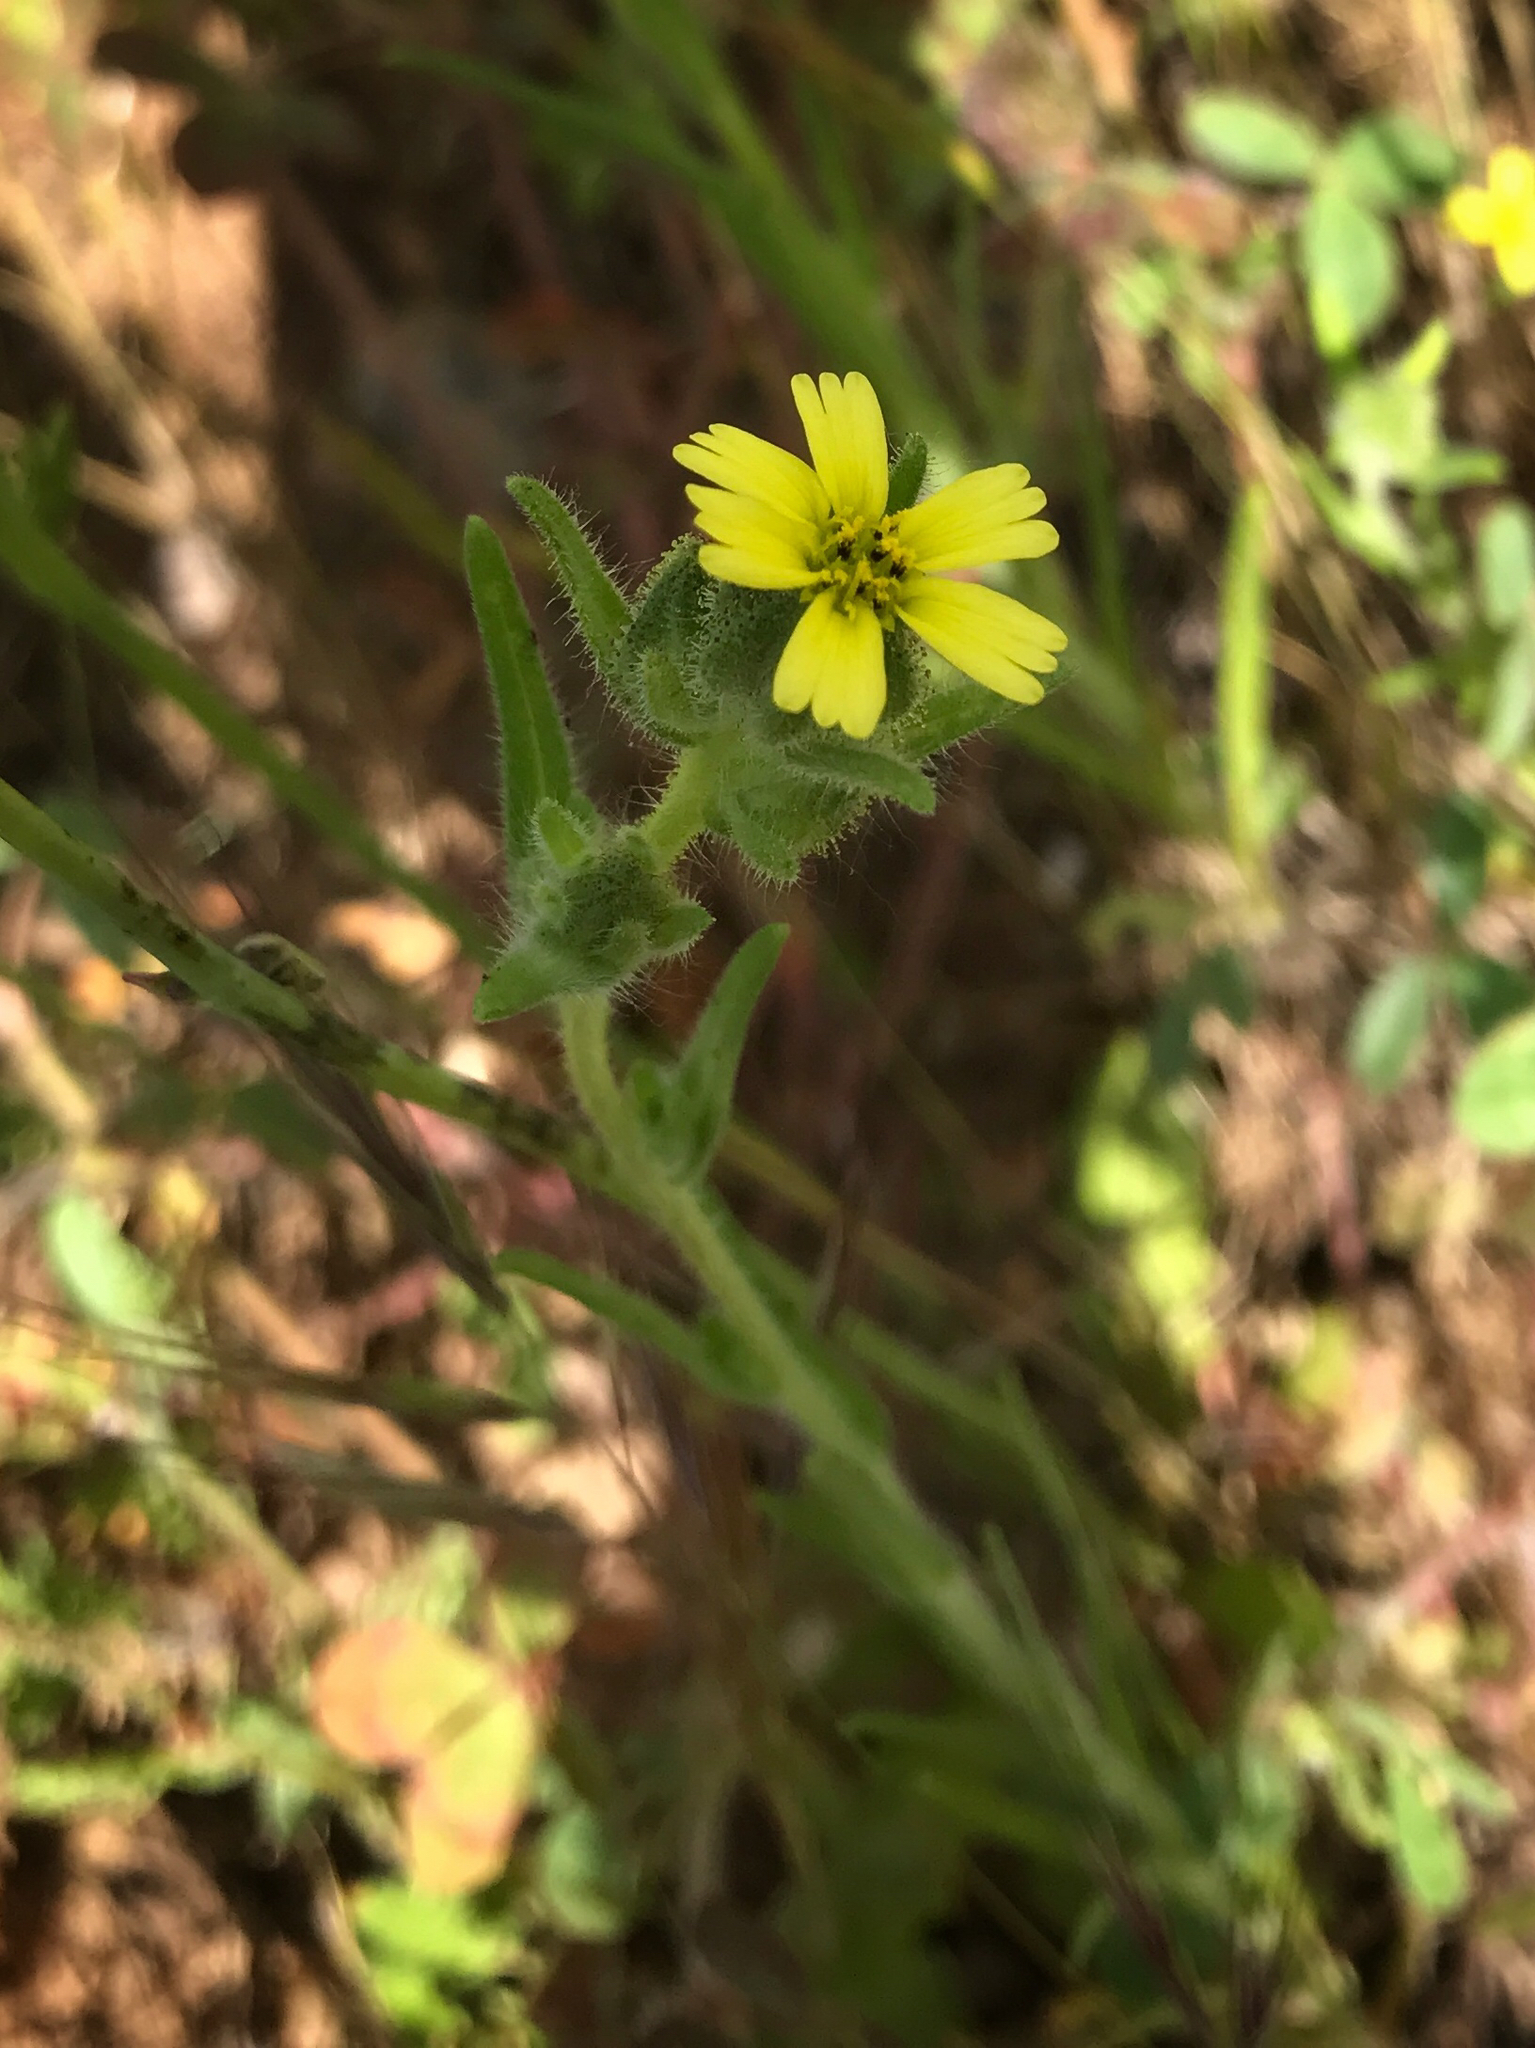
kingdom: Plantae
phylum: Tracheophyta
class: Magnoliopsida
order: Asterales
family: Asteraceae
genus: Madia
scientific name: Madia gracilis
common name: Grassy tarweed
